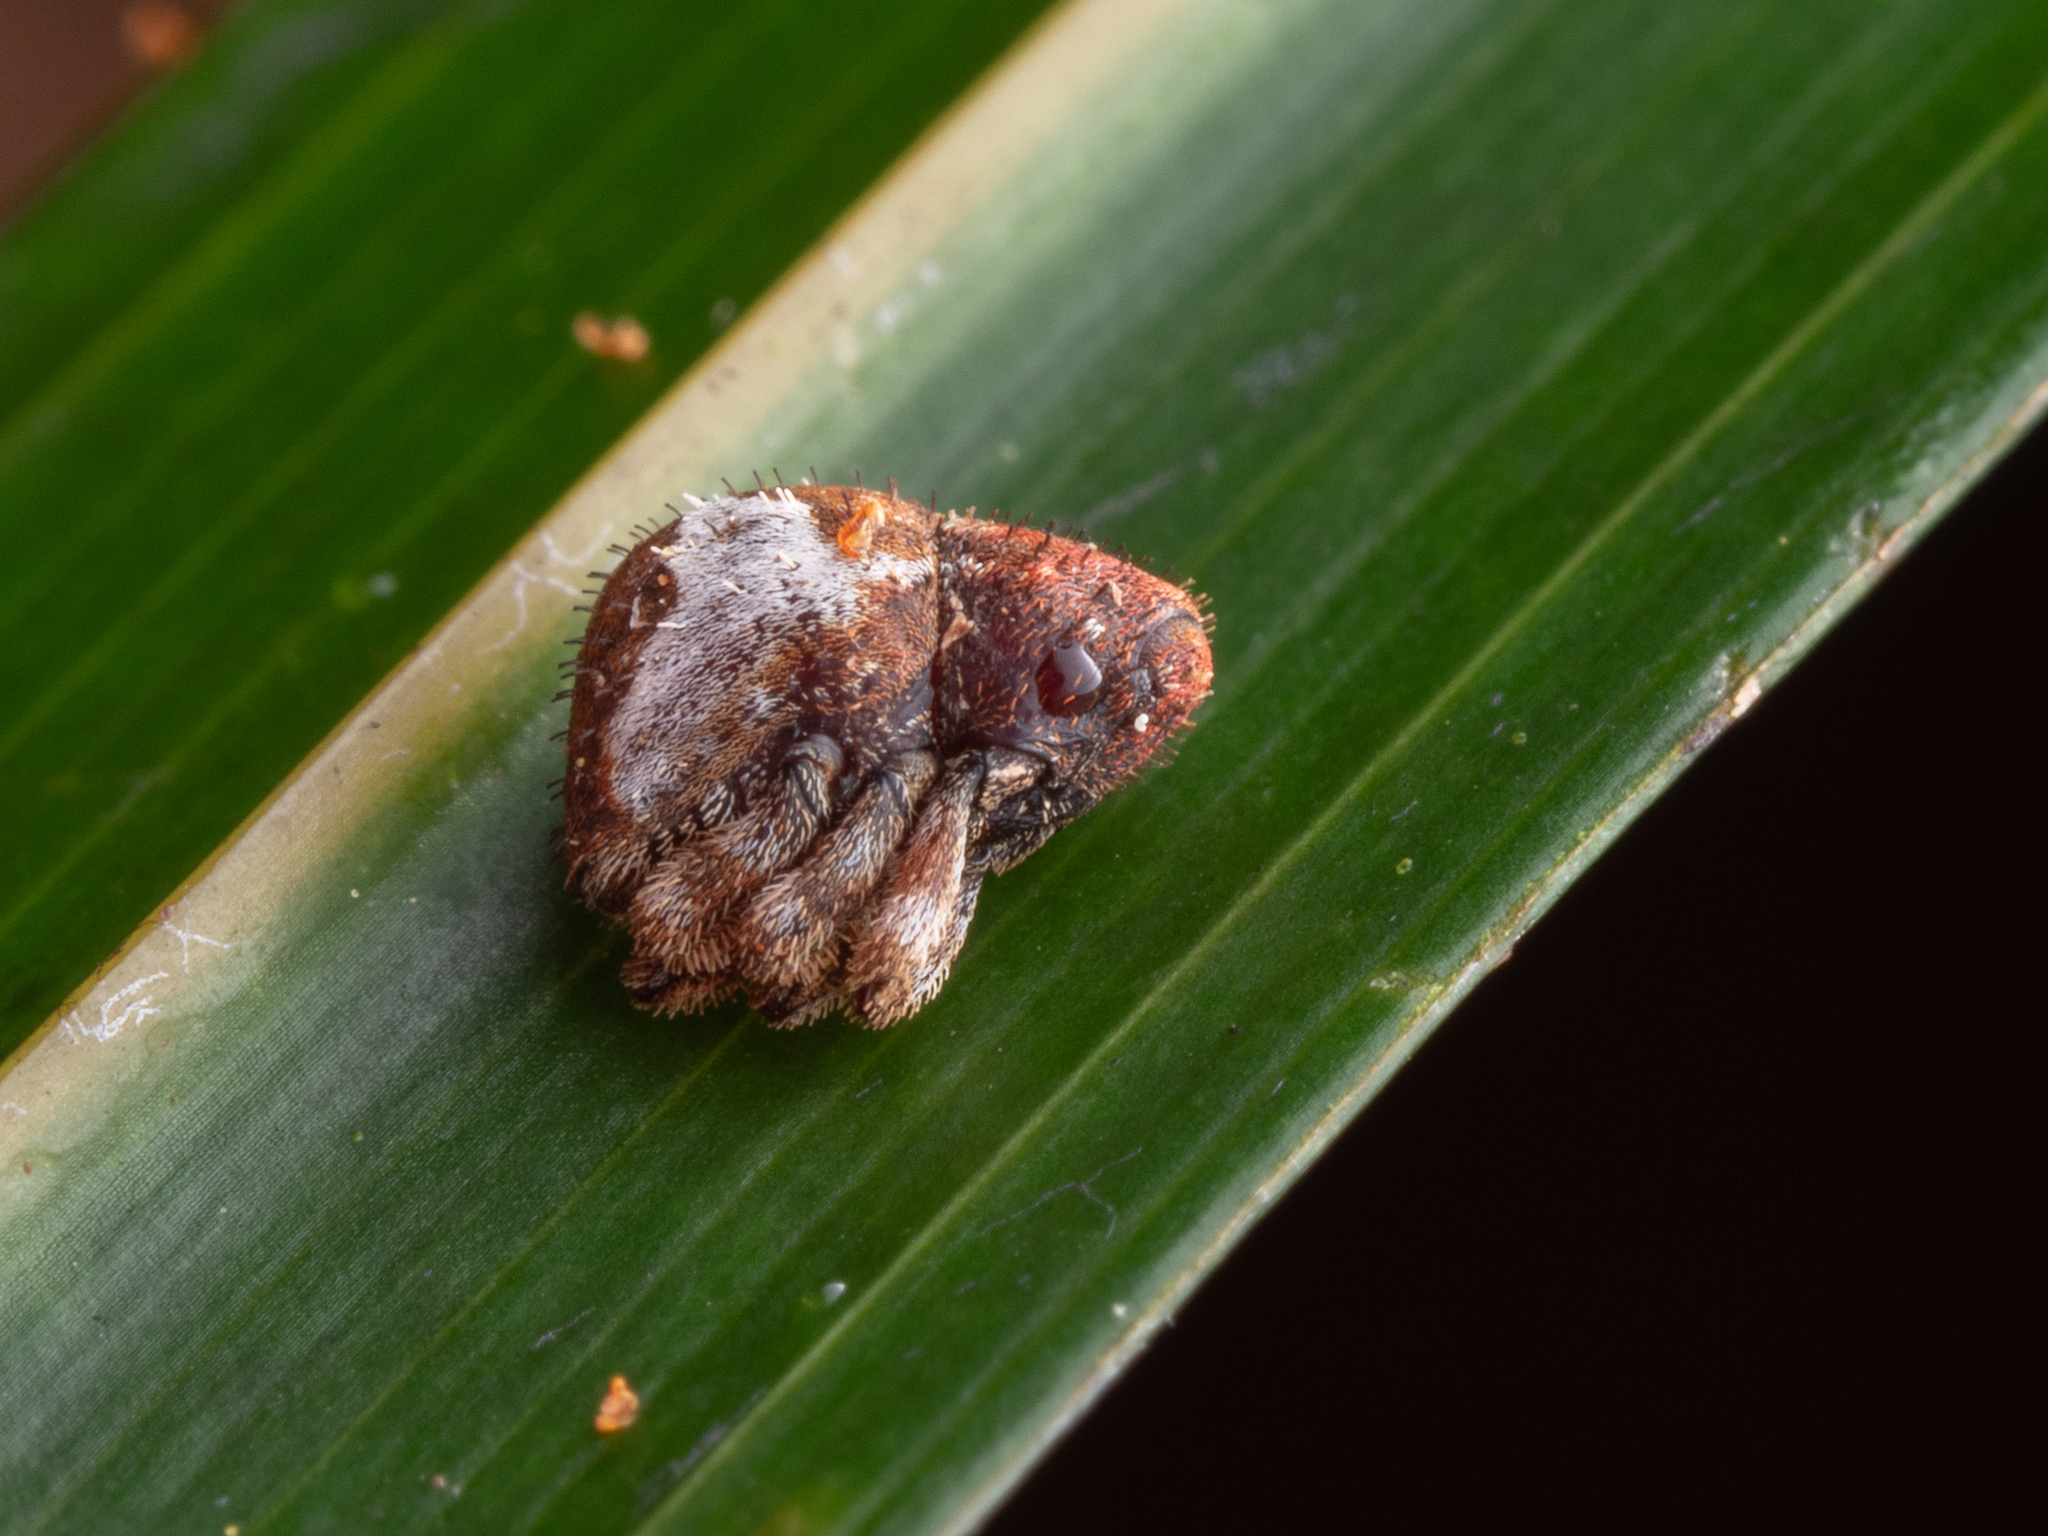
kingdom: Animalia
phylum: Arthropoda
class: Insecta
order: Coleoptera
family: Curculionidae
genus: Crooktacalles
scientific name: Crooktacalles abruptus
